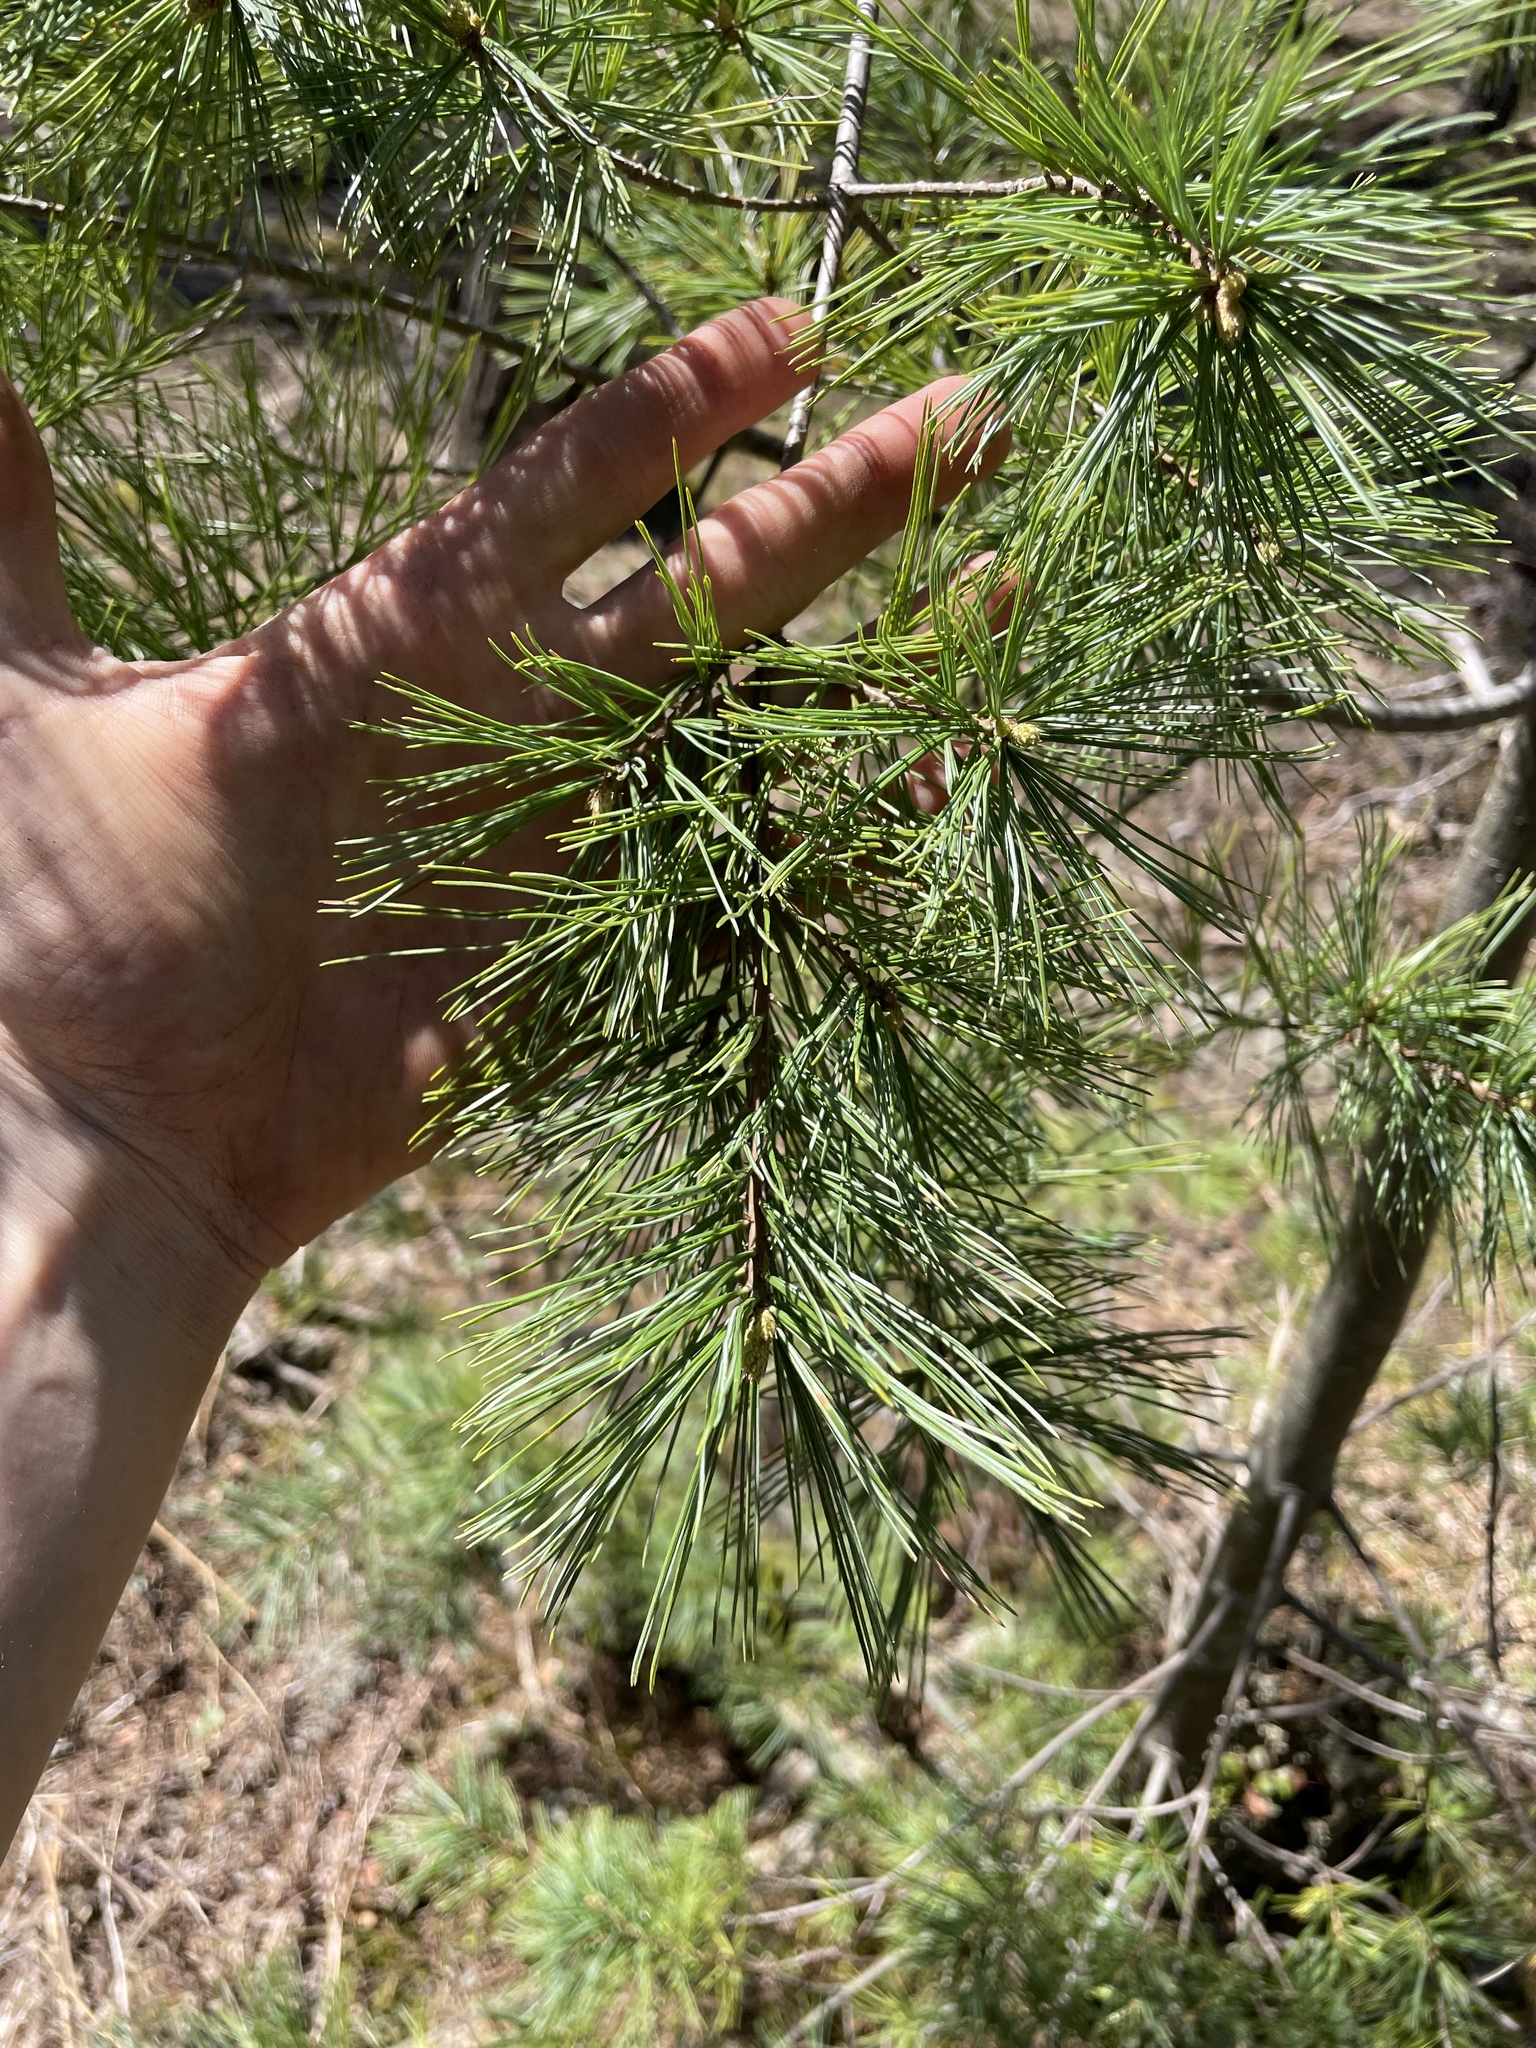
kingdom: Plantae
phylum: Tracheophyta
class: Pinopsida
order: Pinales
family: Pinaceae
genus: Pinus
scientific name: Pinus strobus
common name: Weymouth pine
